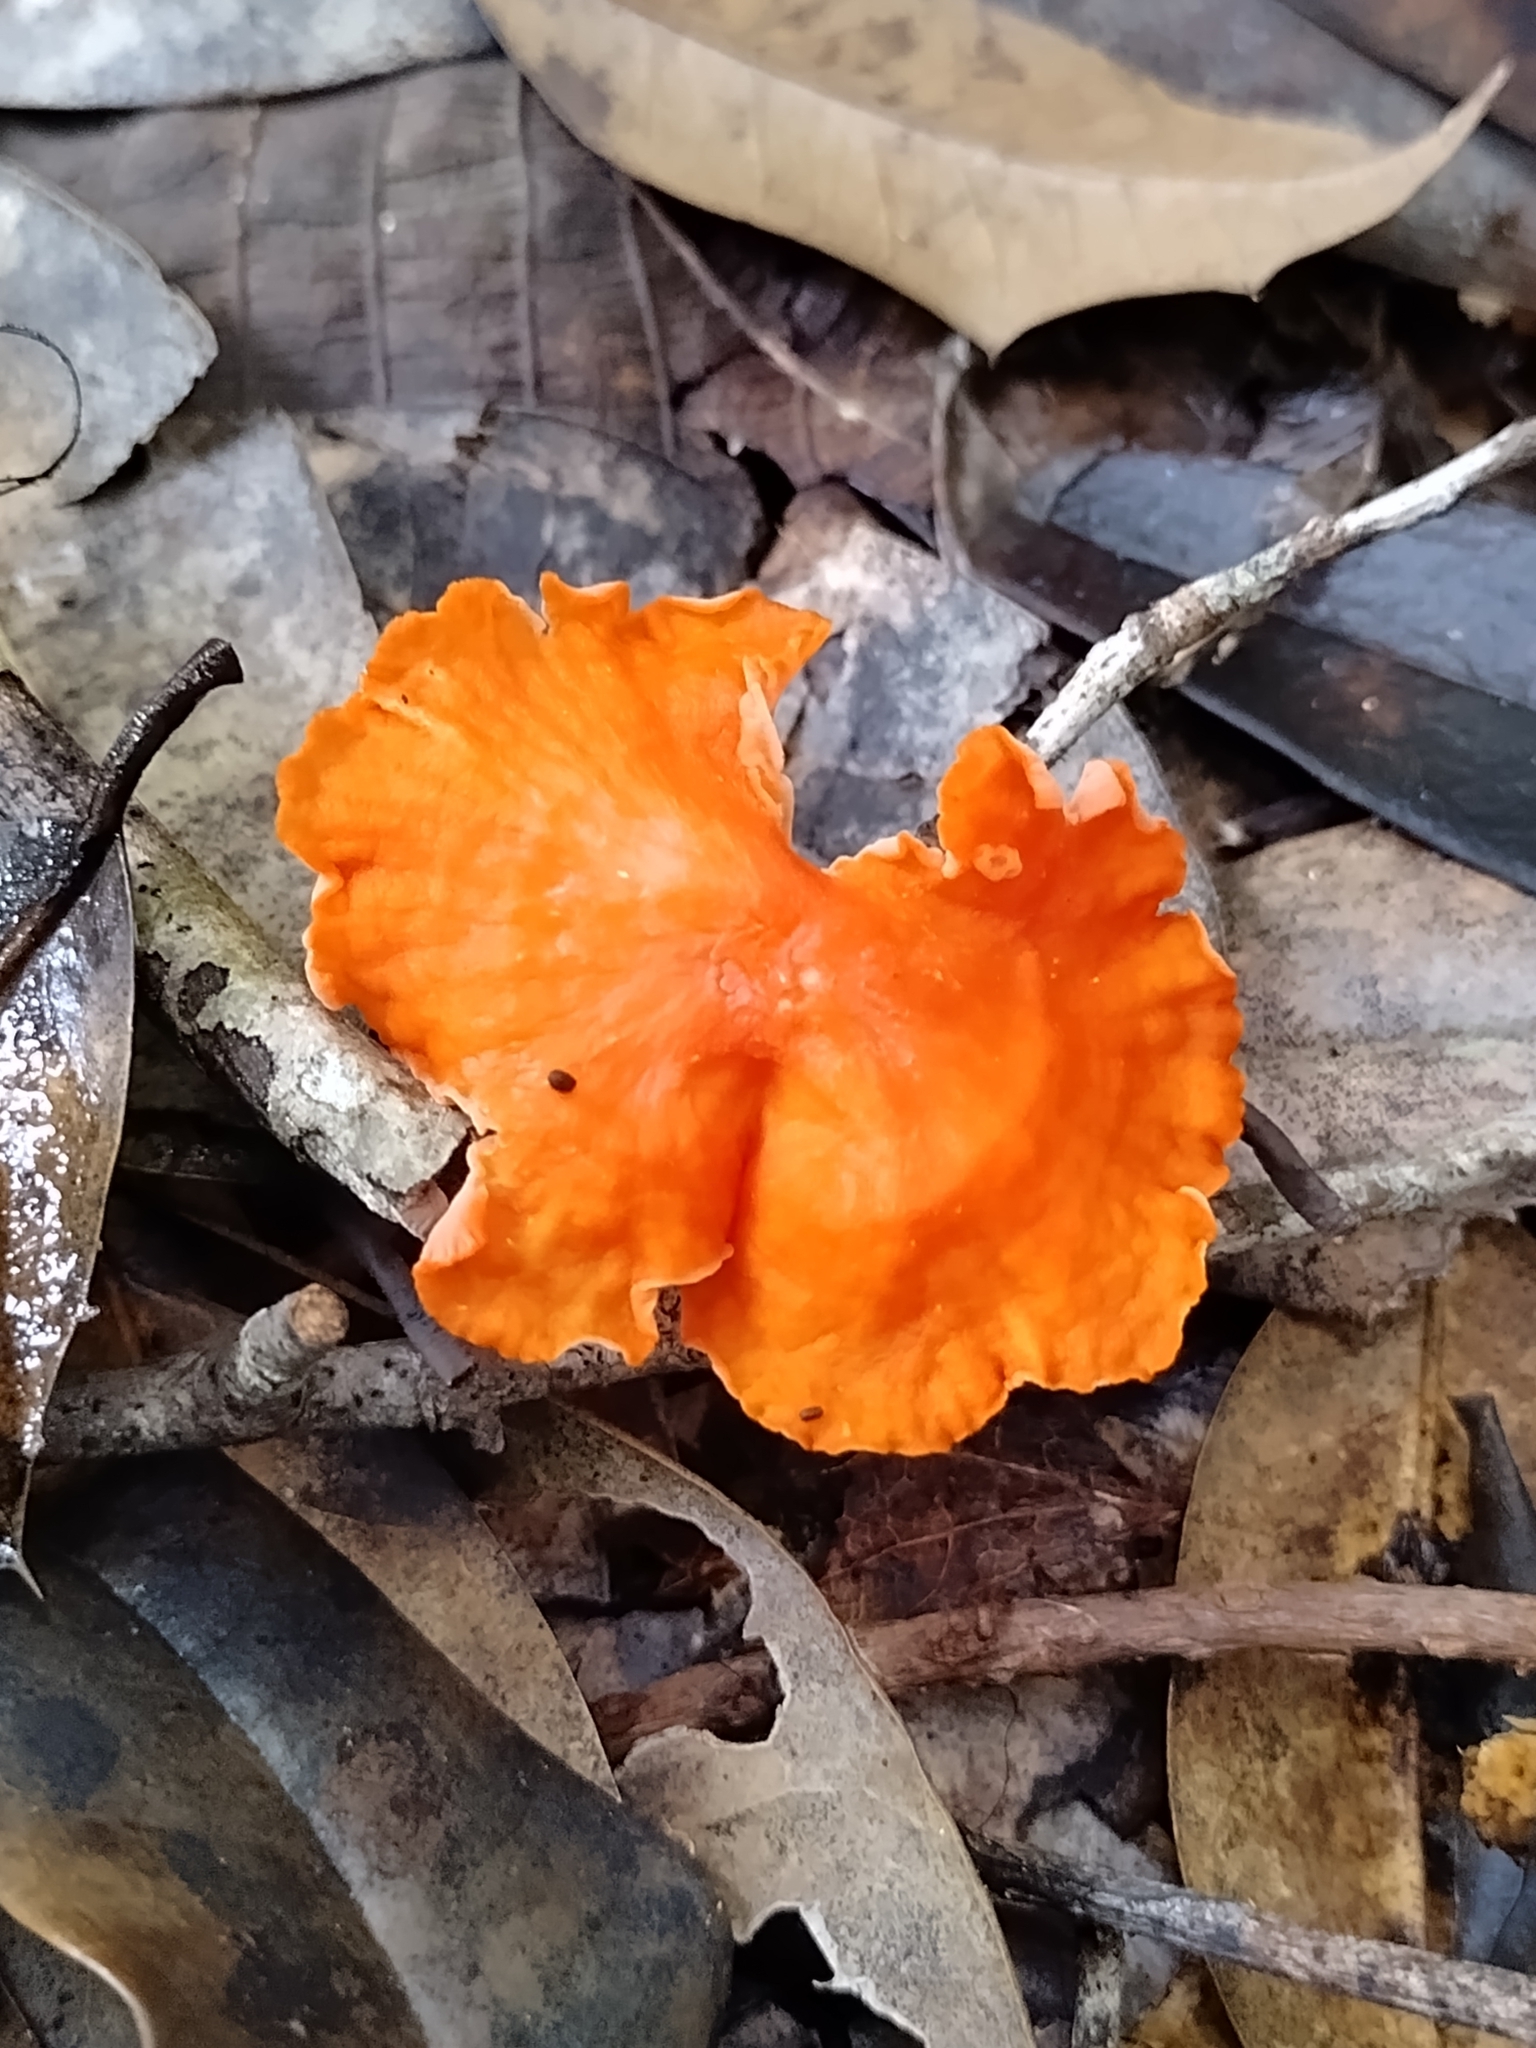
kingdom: Fungi
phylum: Basidiomycota
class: Agaricomycetes
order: Cantharellales
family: Hydnaceae
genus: Cantharellus
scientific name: Cantharellus cinnabarinus
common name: Cinnabar chanterelle
